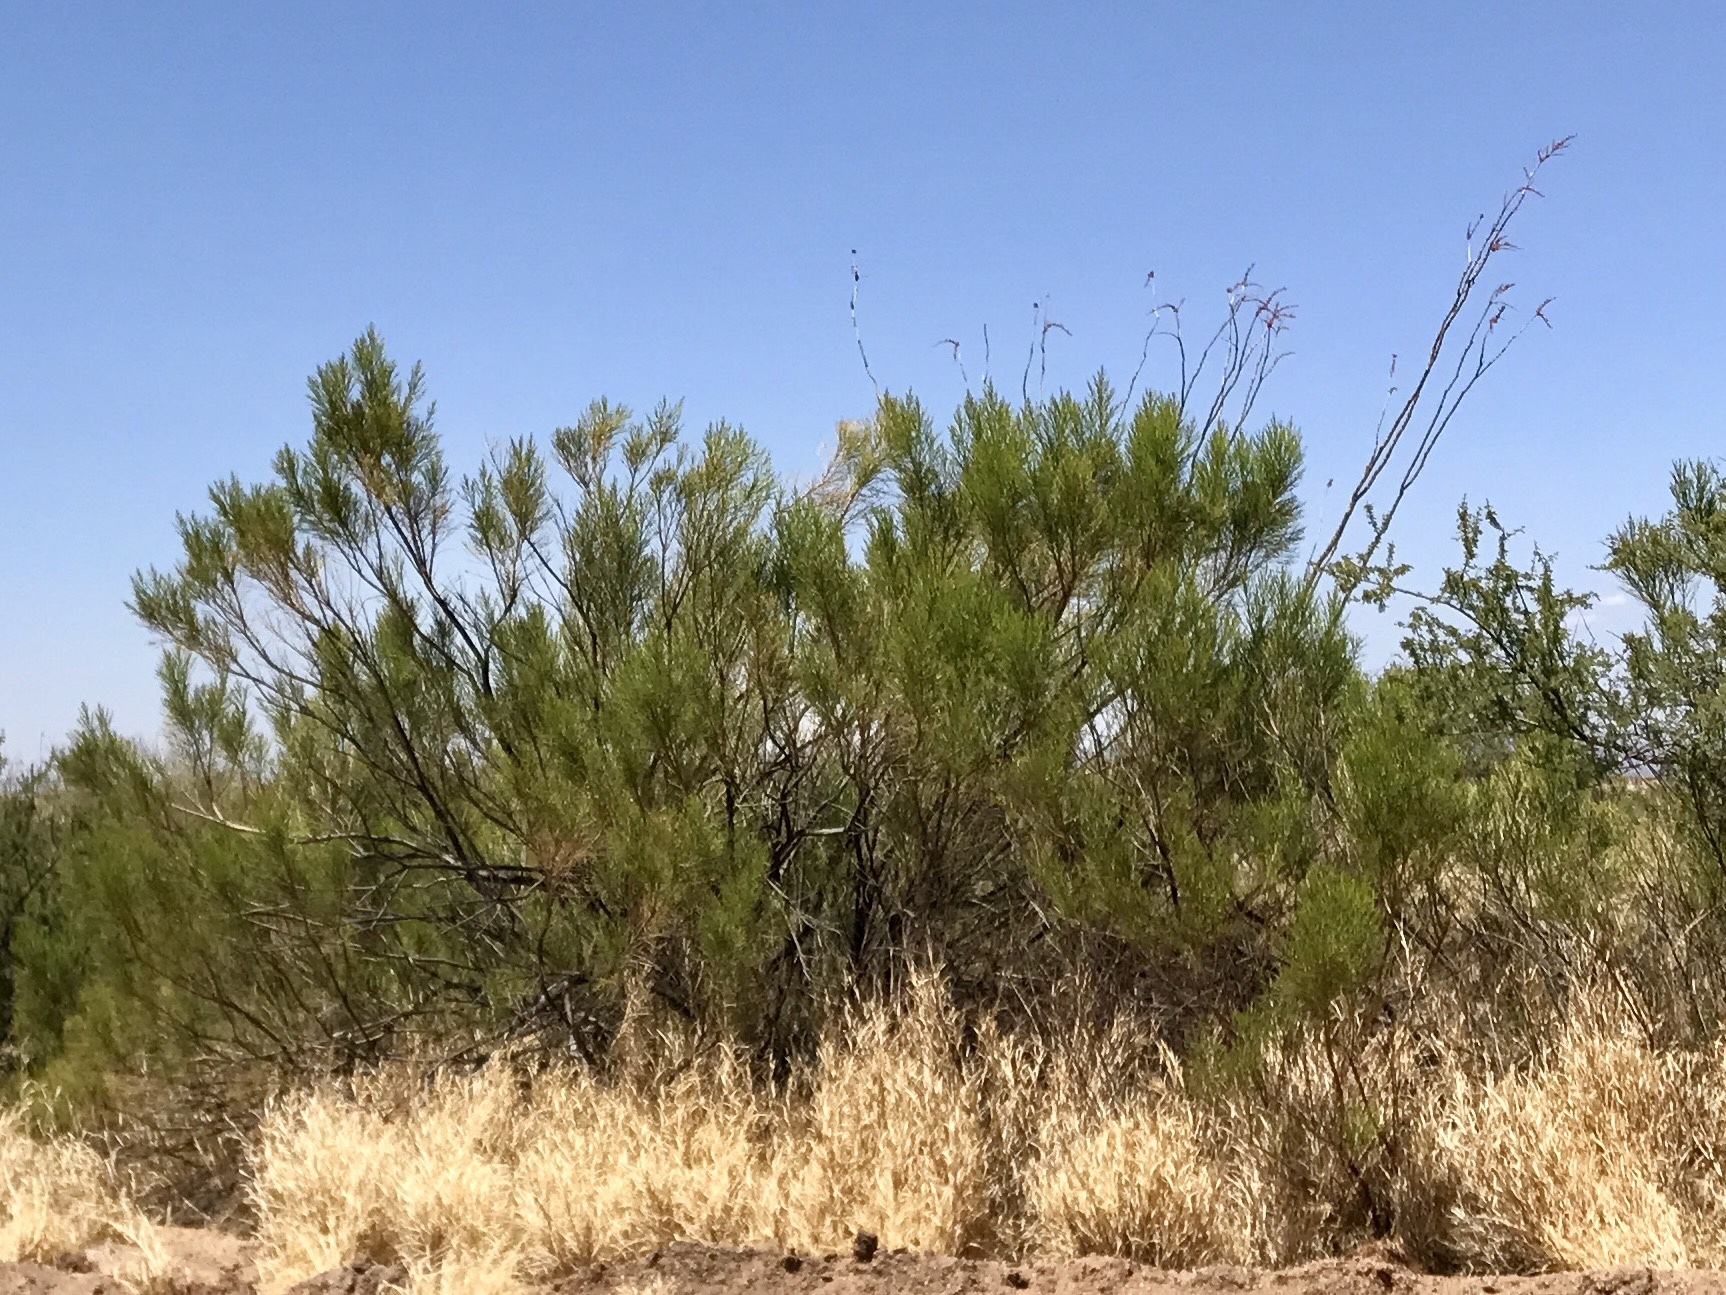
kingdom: Plantae
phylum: Tracheophyta
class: Magnoliopsida
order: Asterales
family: Asteraceae
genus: Baccharis
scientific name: Baccharis sarothroides
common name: Desert-broom
